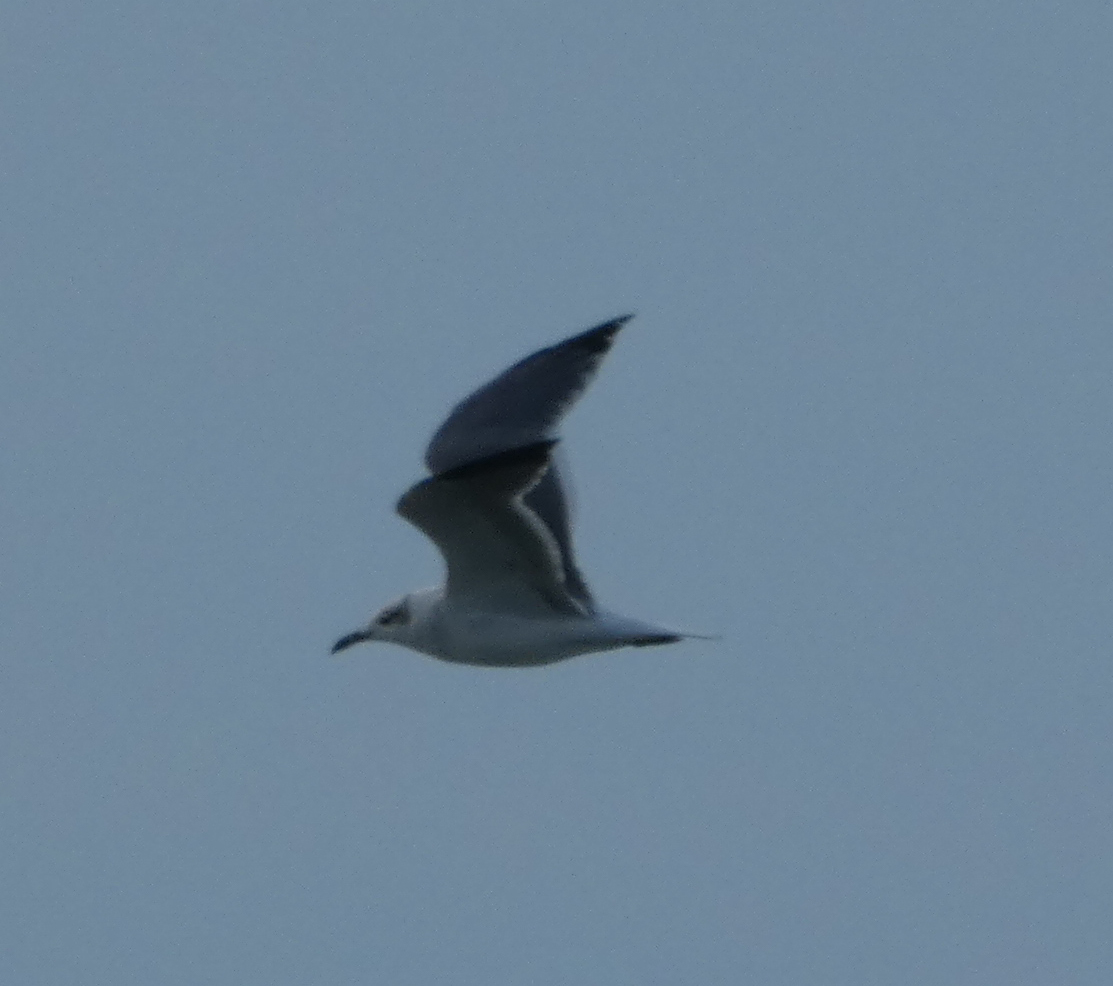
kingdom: Animalia
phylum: Chordata
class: Aves
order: Charadriiformes
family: Laridae
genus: Leucophaeus
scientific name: Leucophaeus atricilla
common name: Laughing gull
